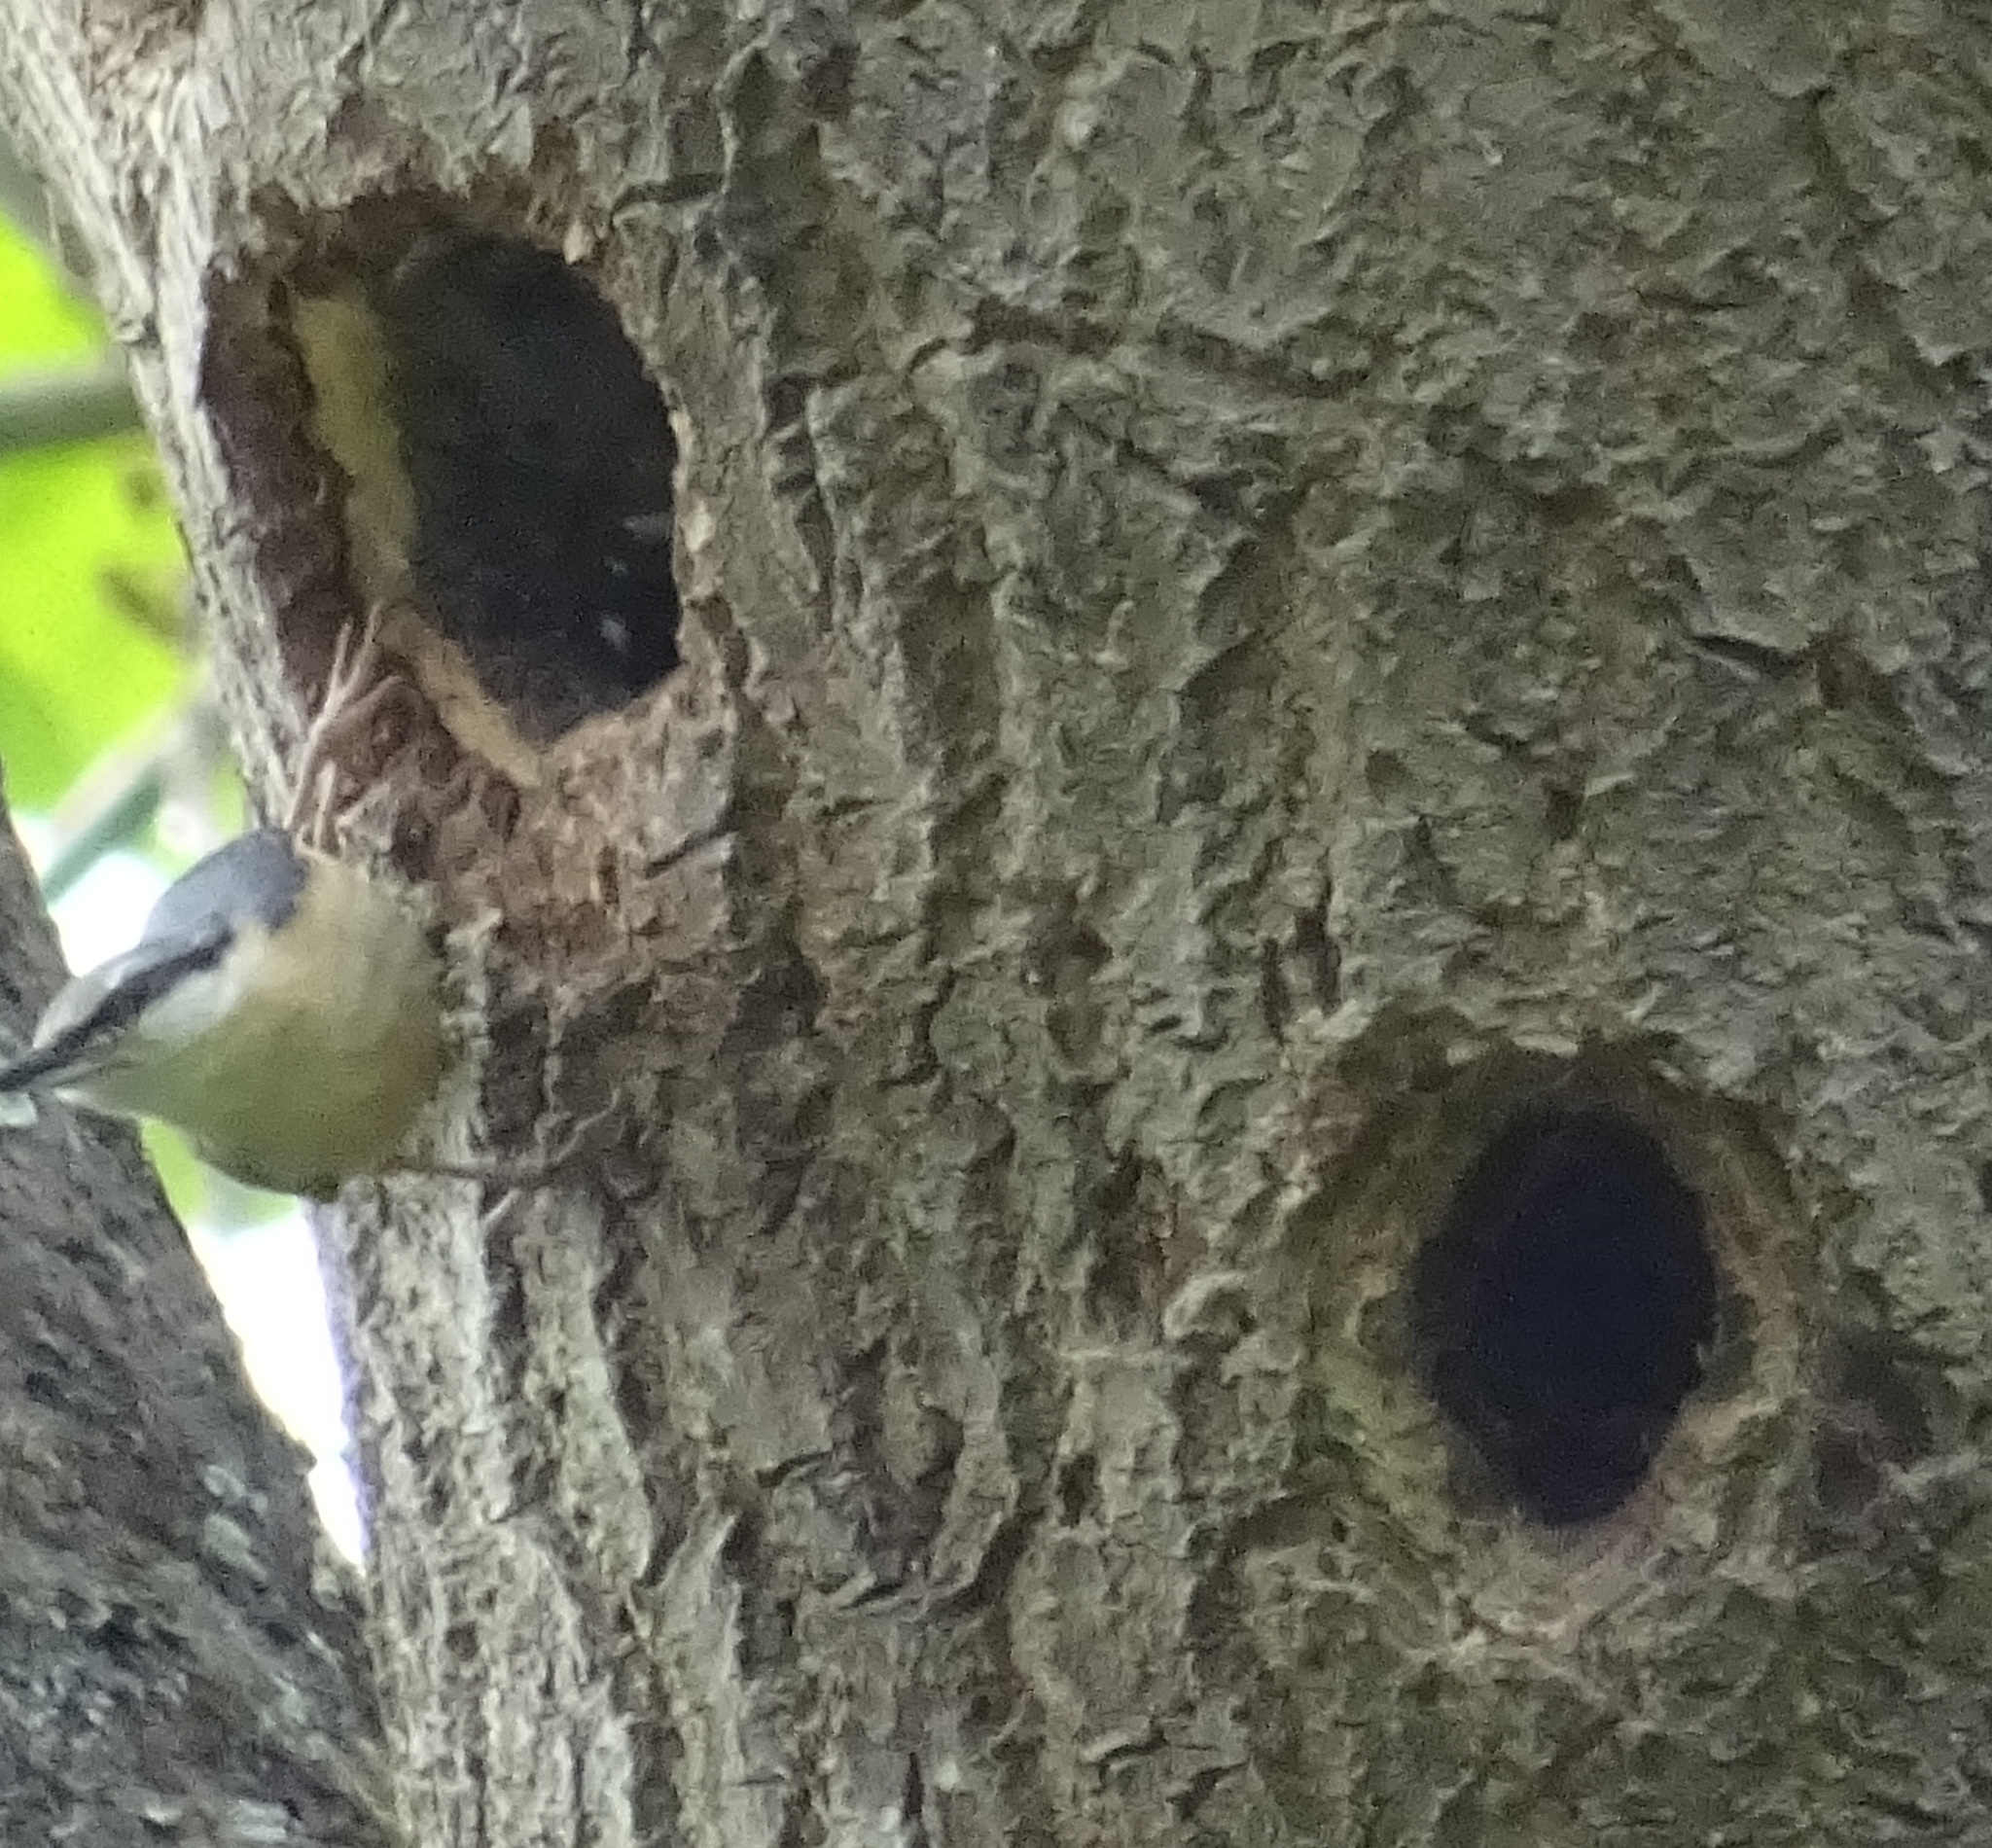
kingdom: Animalia
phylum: Chordata
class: Aves
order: Passeriformes
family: Sittidae
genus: Sitta
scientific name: Sitta europaea
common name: Eurasian nuthatch
